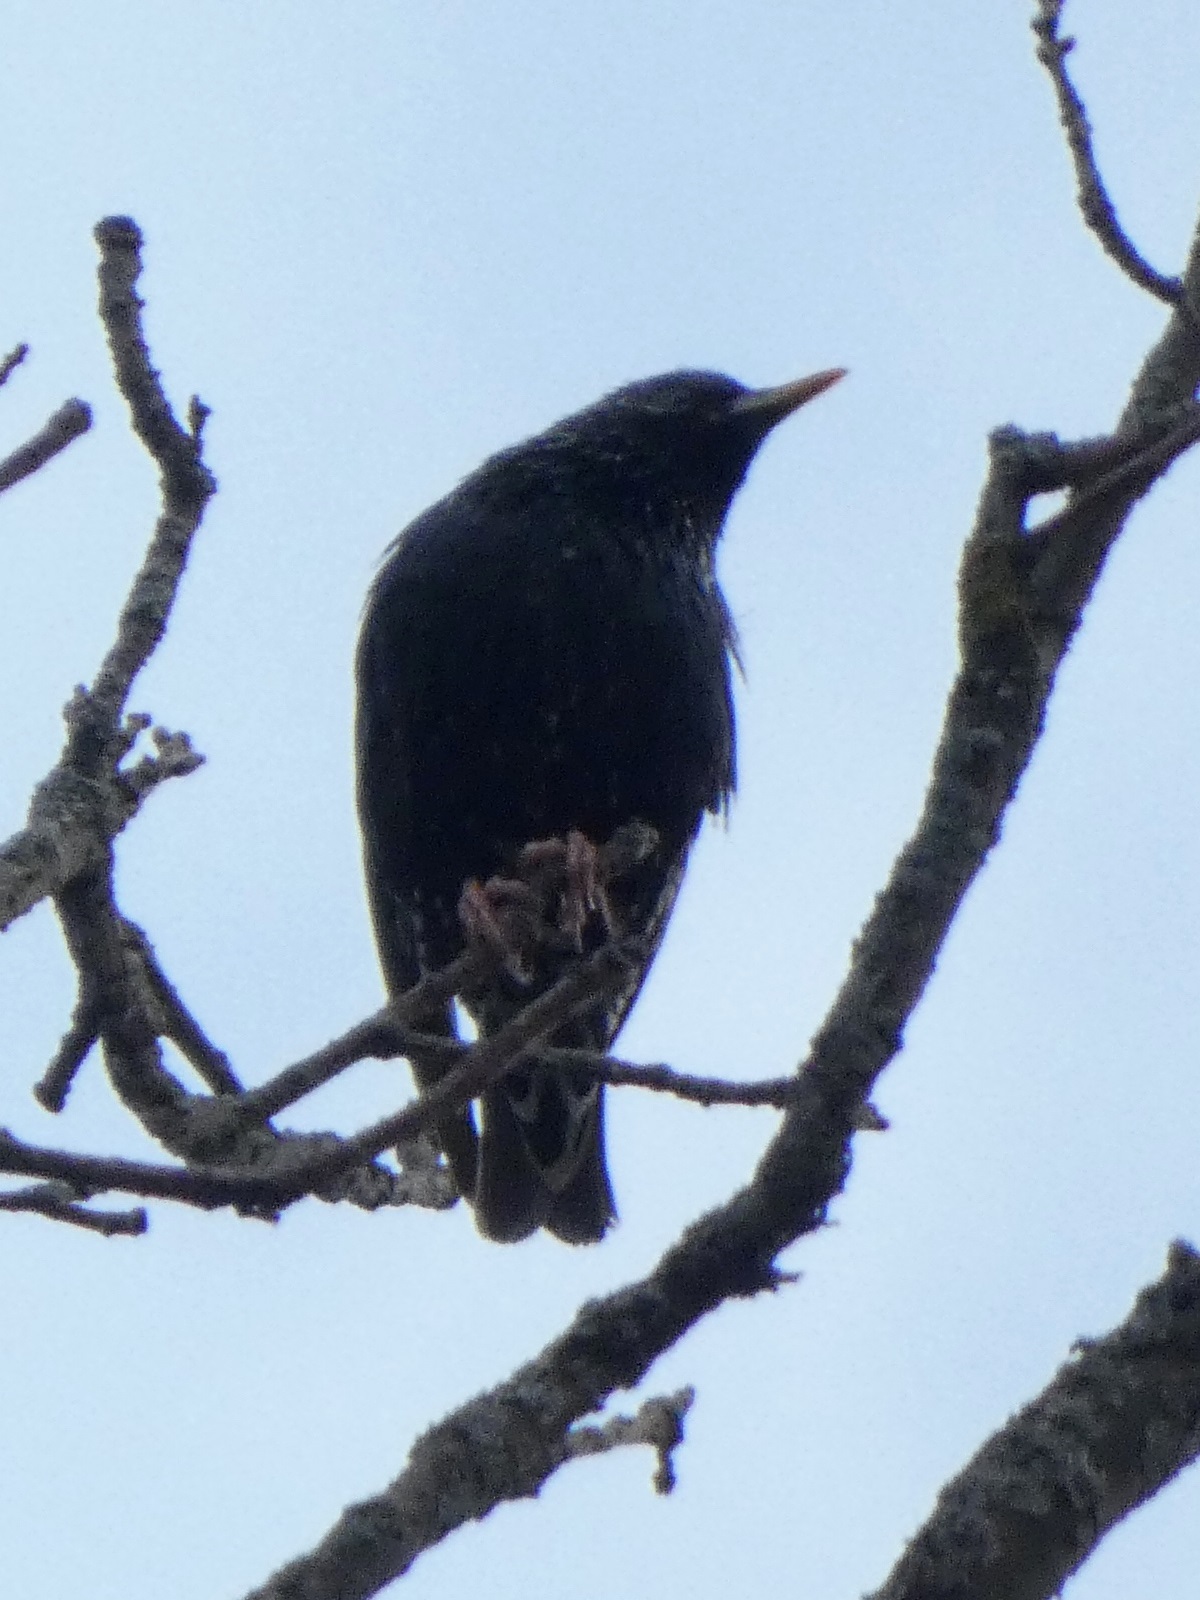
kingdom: Animalia
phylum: Chordata
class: Aves
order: Passeriformes
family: Sturnidae
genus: Sturnus
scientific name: Sturnus vulgaris
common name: Common starling
